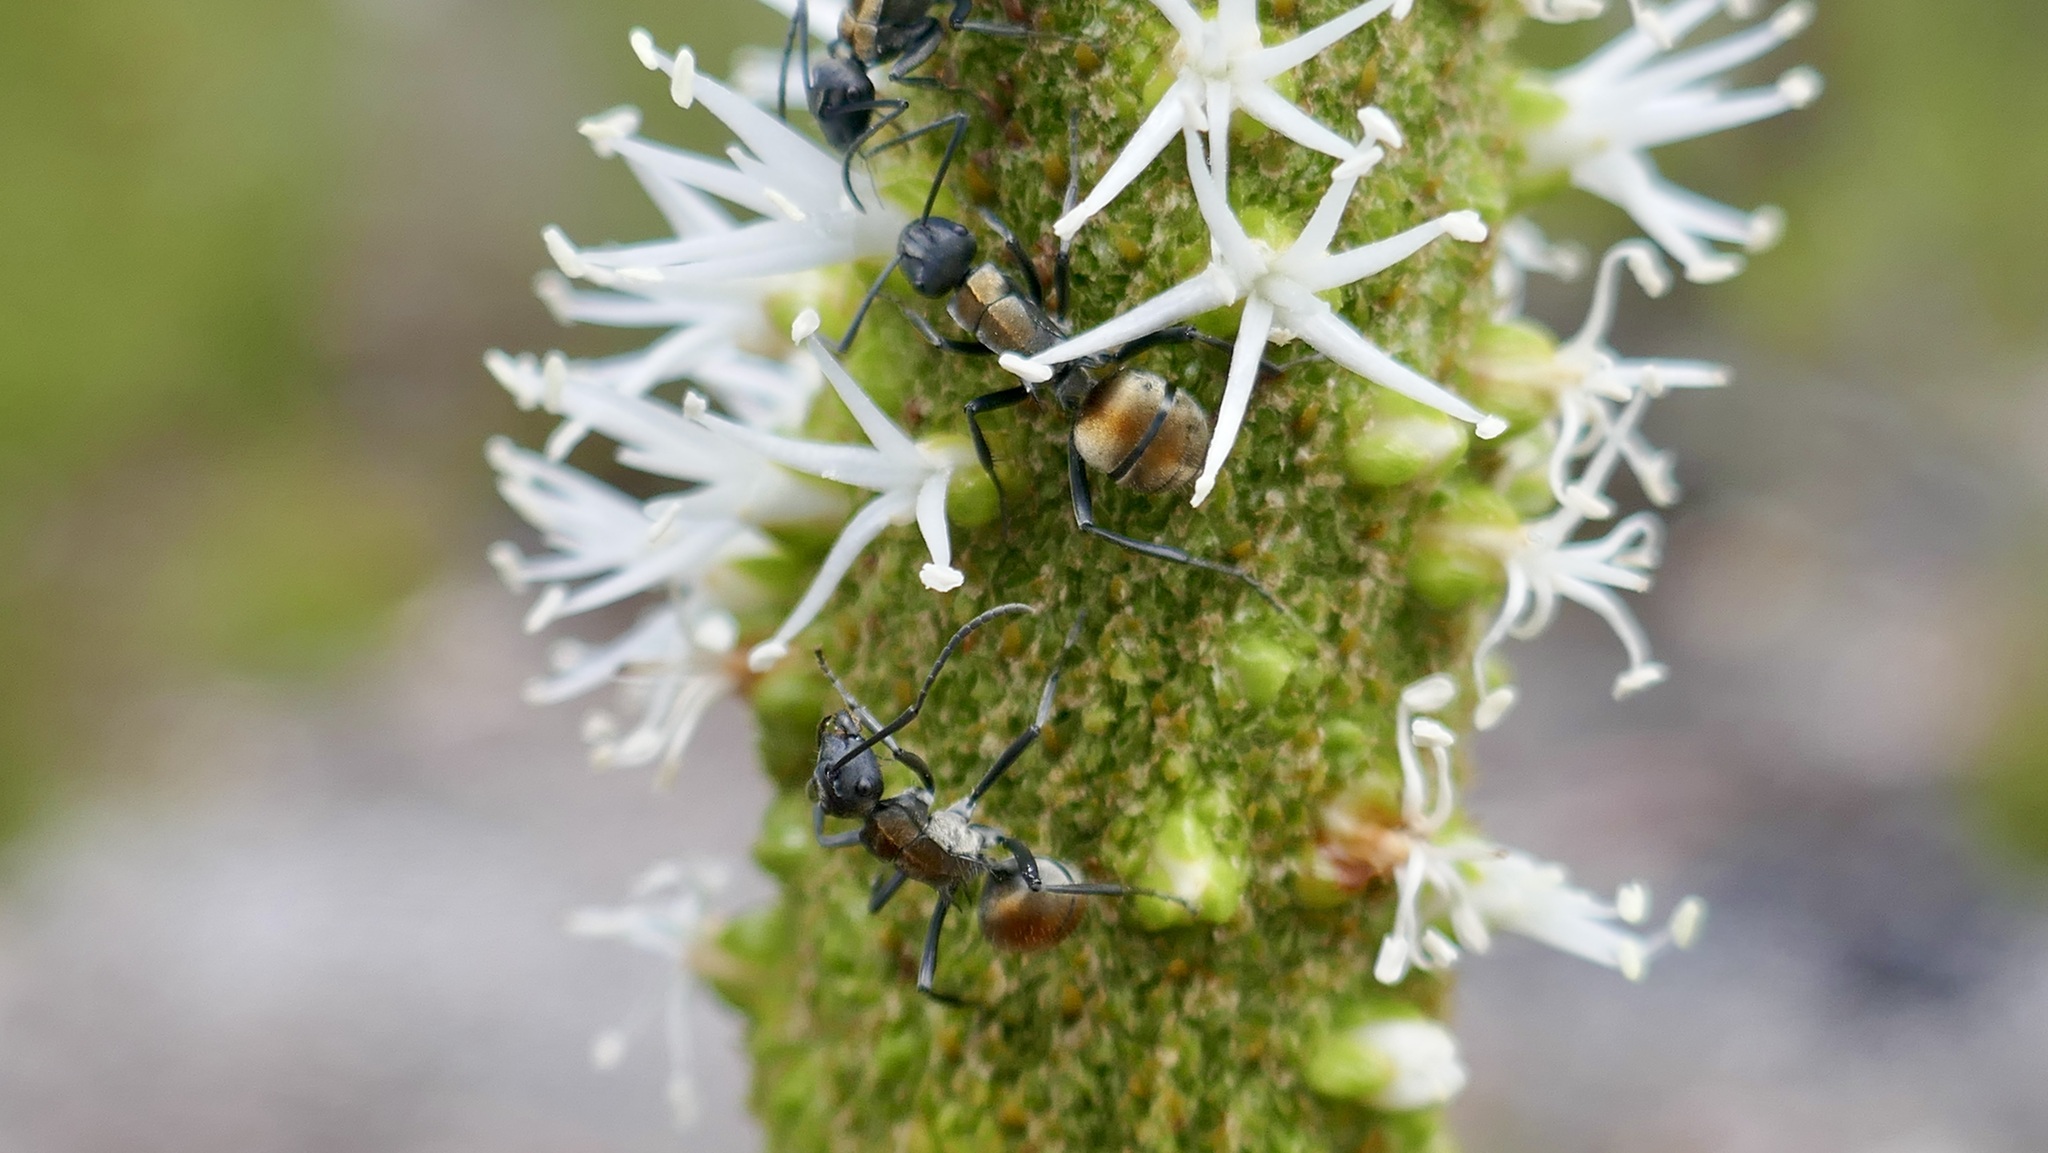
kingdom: Animalia
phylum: Arthropoda
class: Insecta
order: Hymenoptera
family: Formicidae
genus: Polyrhachis
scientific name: Polyrhachis ammon
